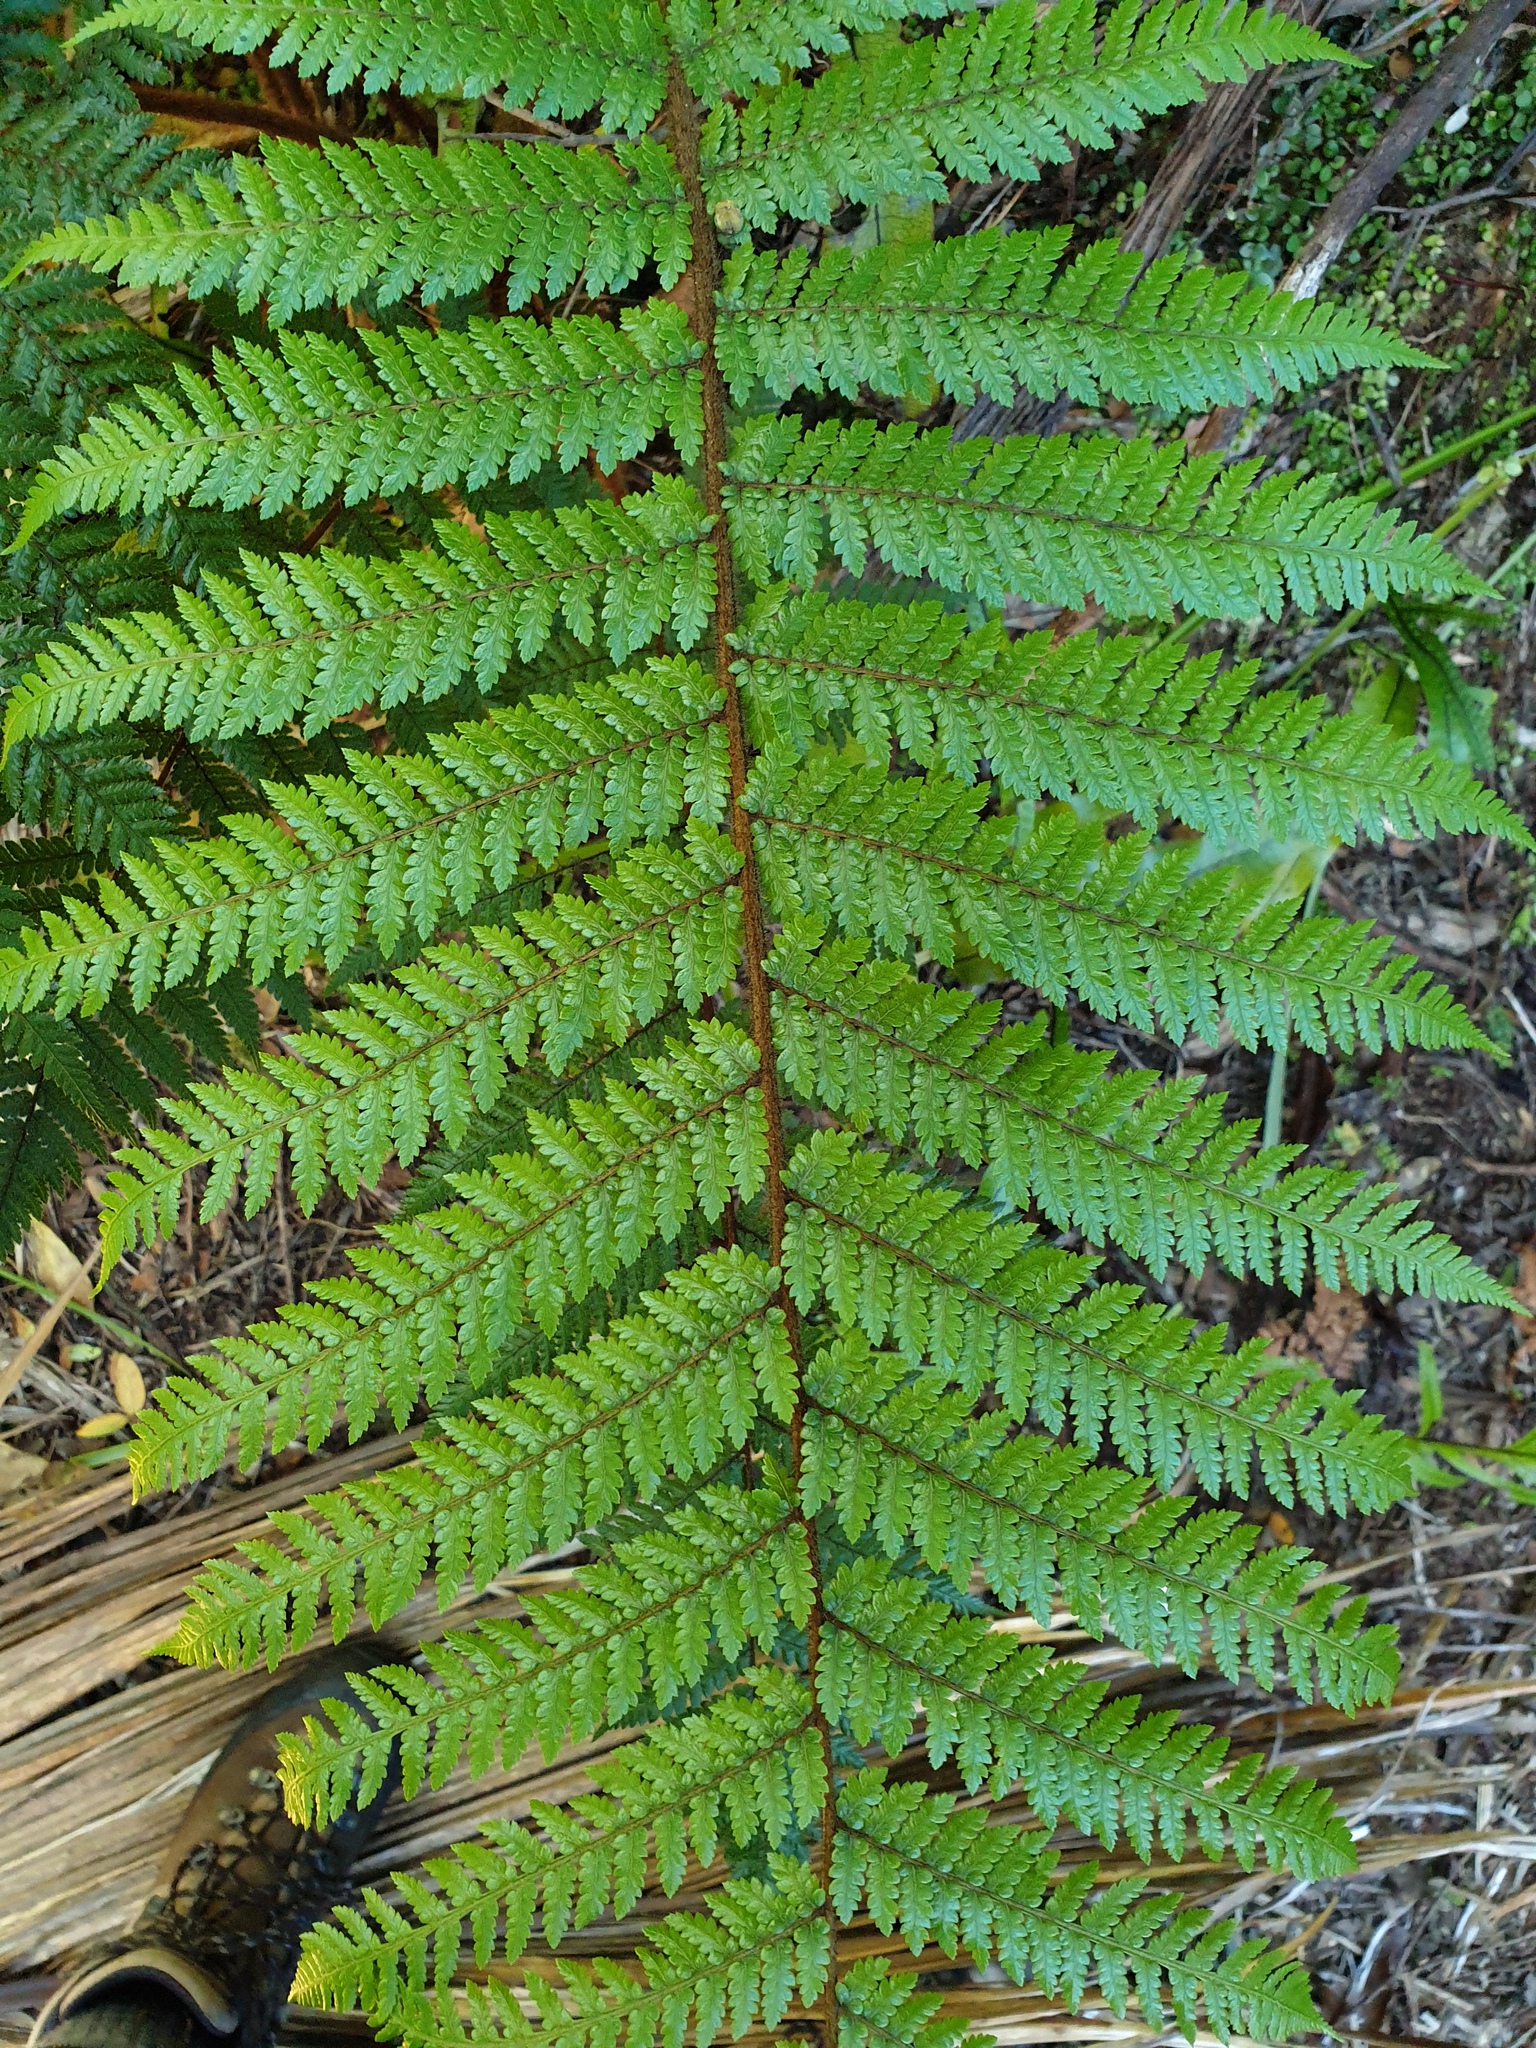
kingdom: Plantae
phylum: Tracheophyta
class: Polypodiopsida
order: Cyatheales
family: Dicksoniaceae
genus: Dicksonia
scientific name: Dicksonia squarrosa
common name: Hard treefern
